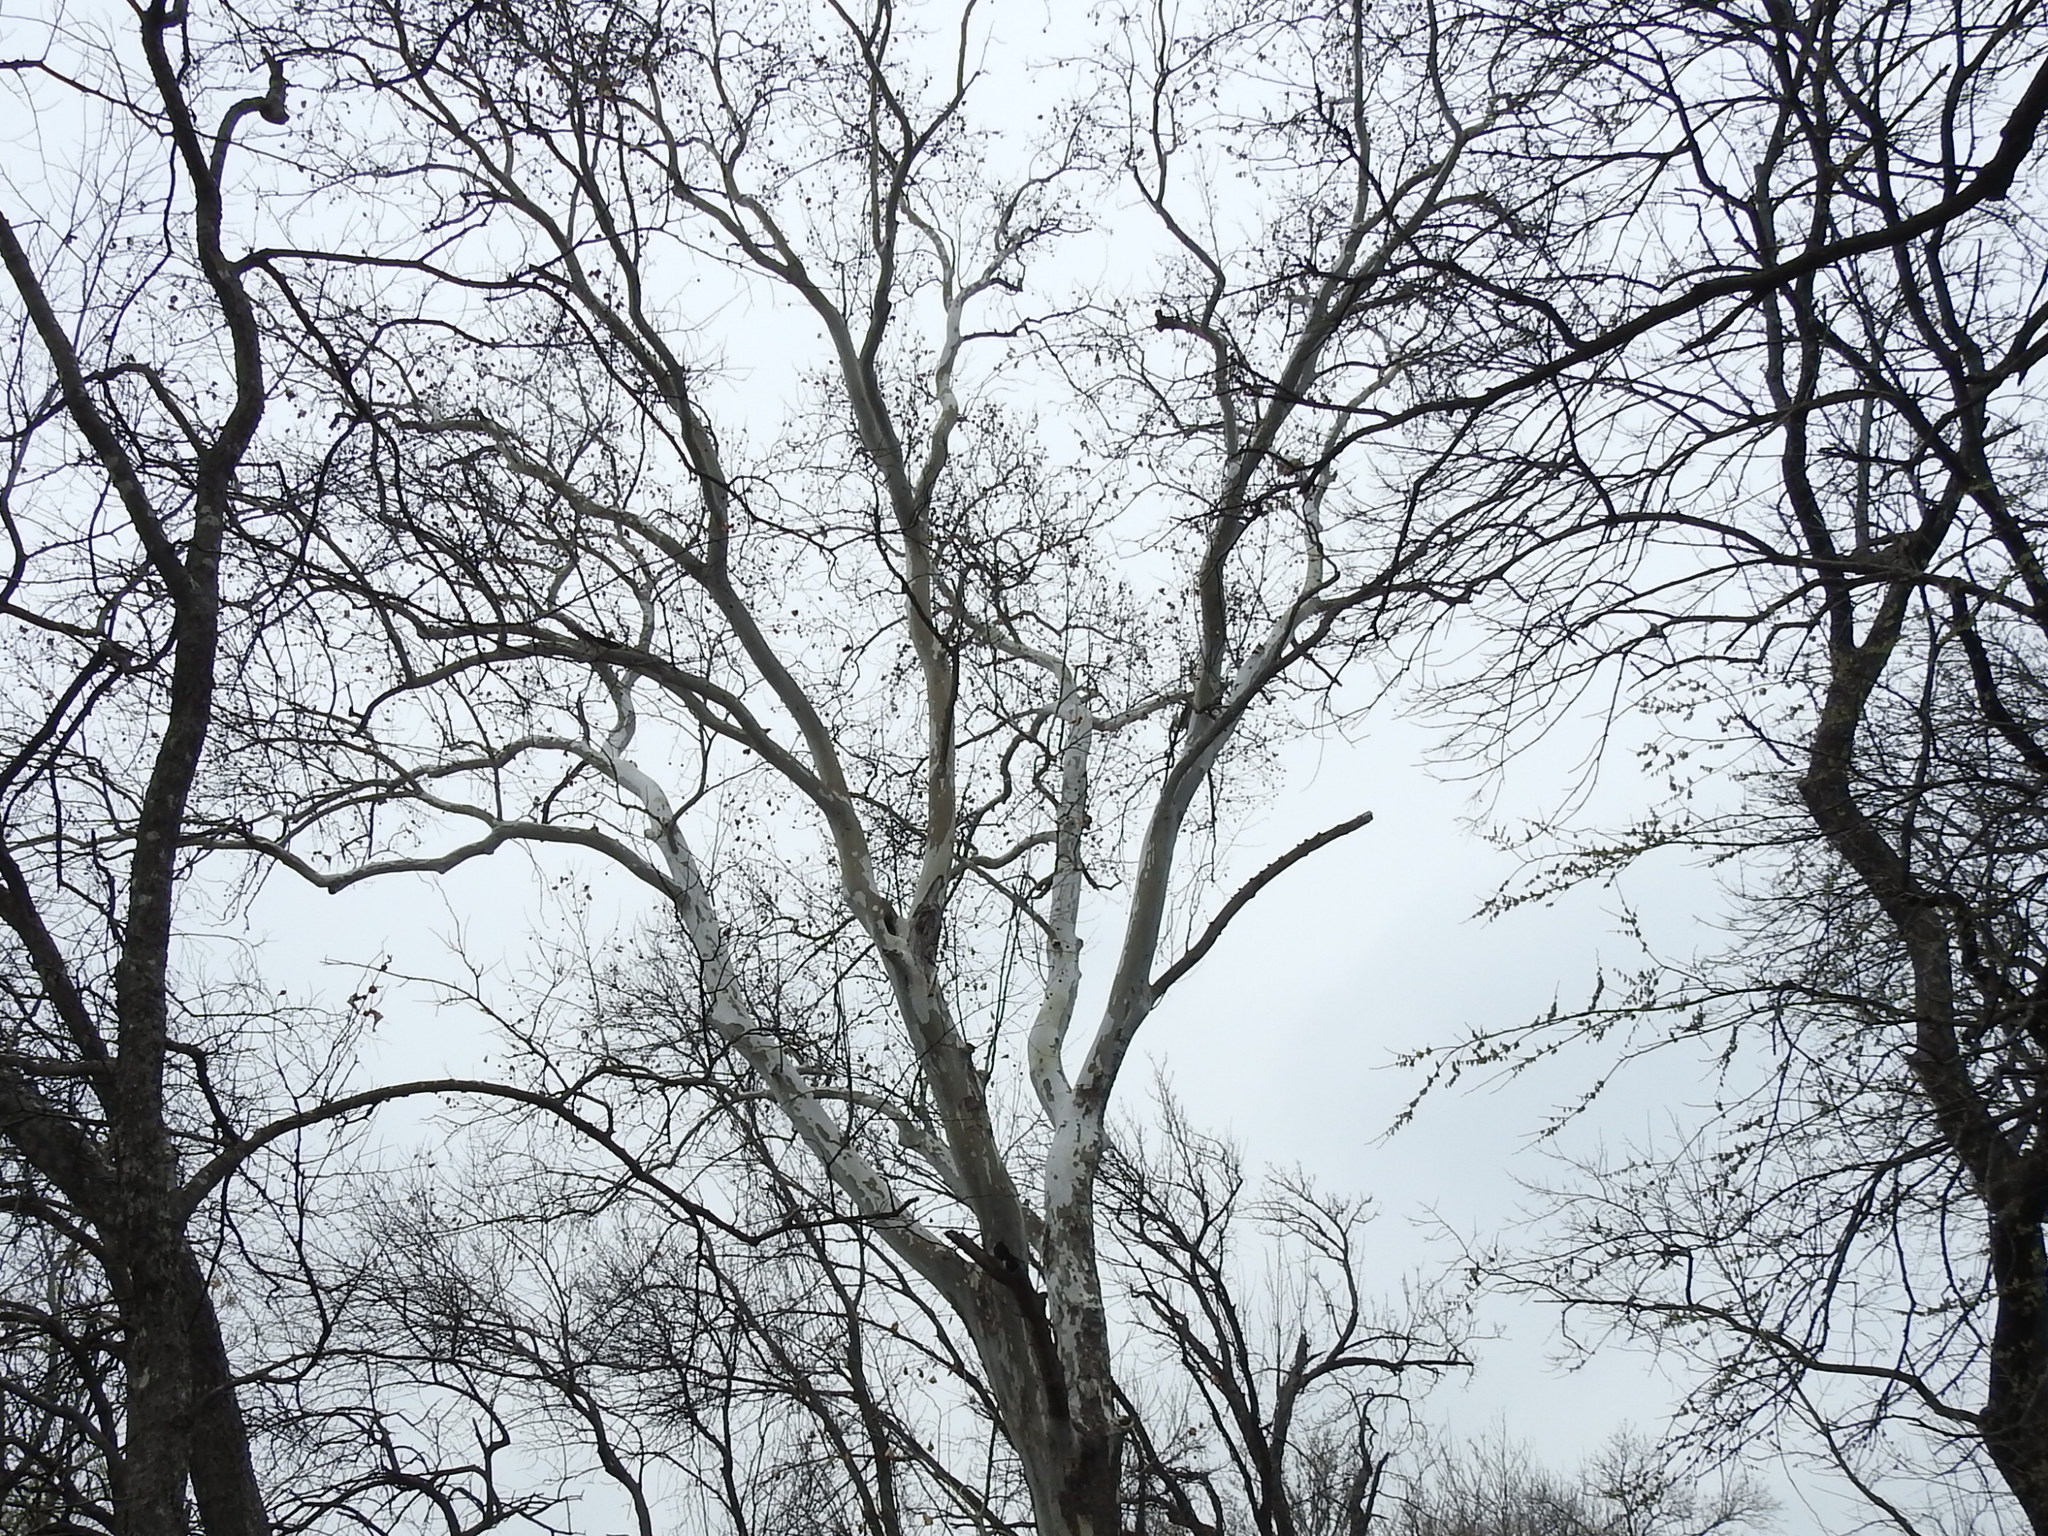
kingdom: Plantae
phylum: Tracheophyta
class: Magnoliopsida
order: Proteales
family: Platanaceae
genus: Platanus
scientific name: Platanus occidentalis
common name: American sycamore
